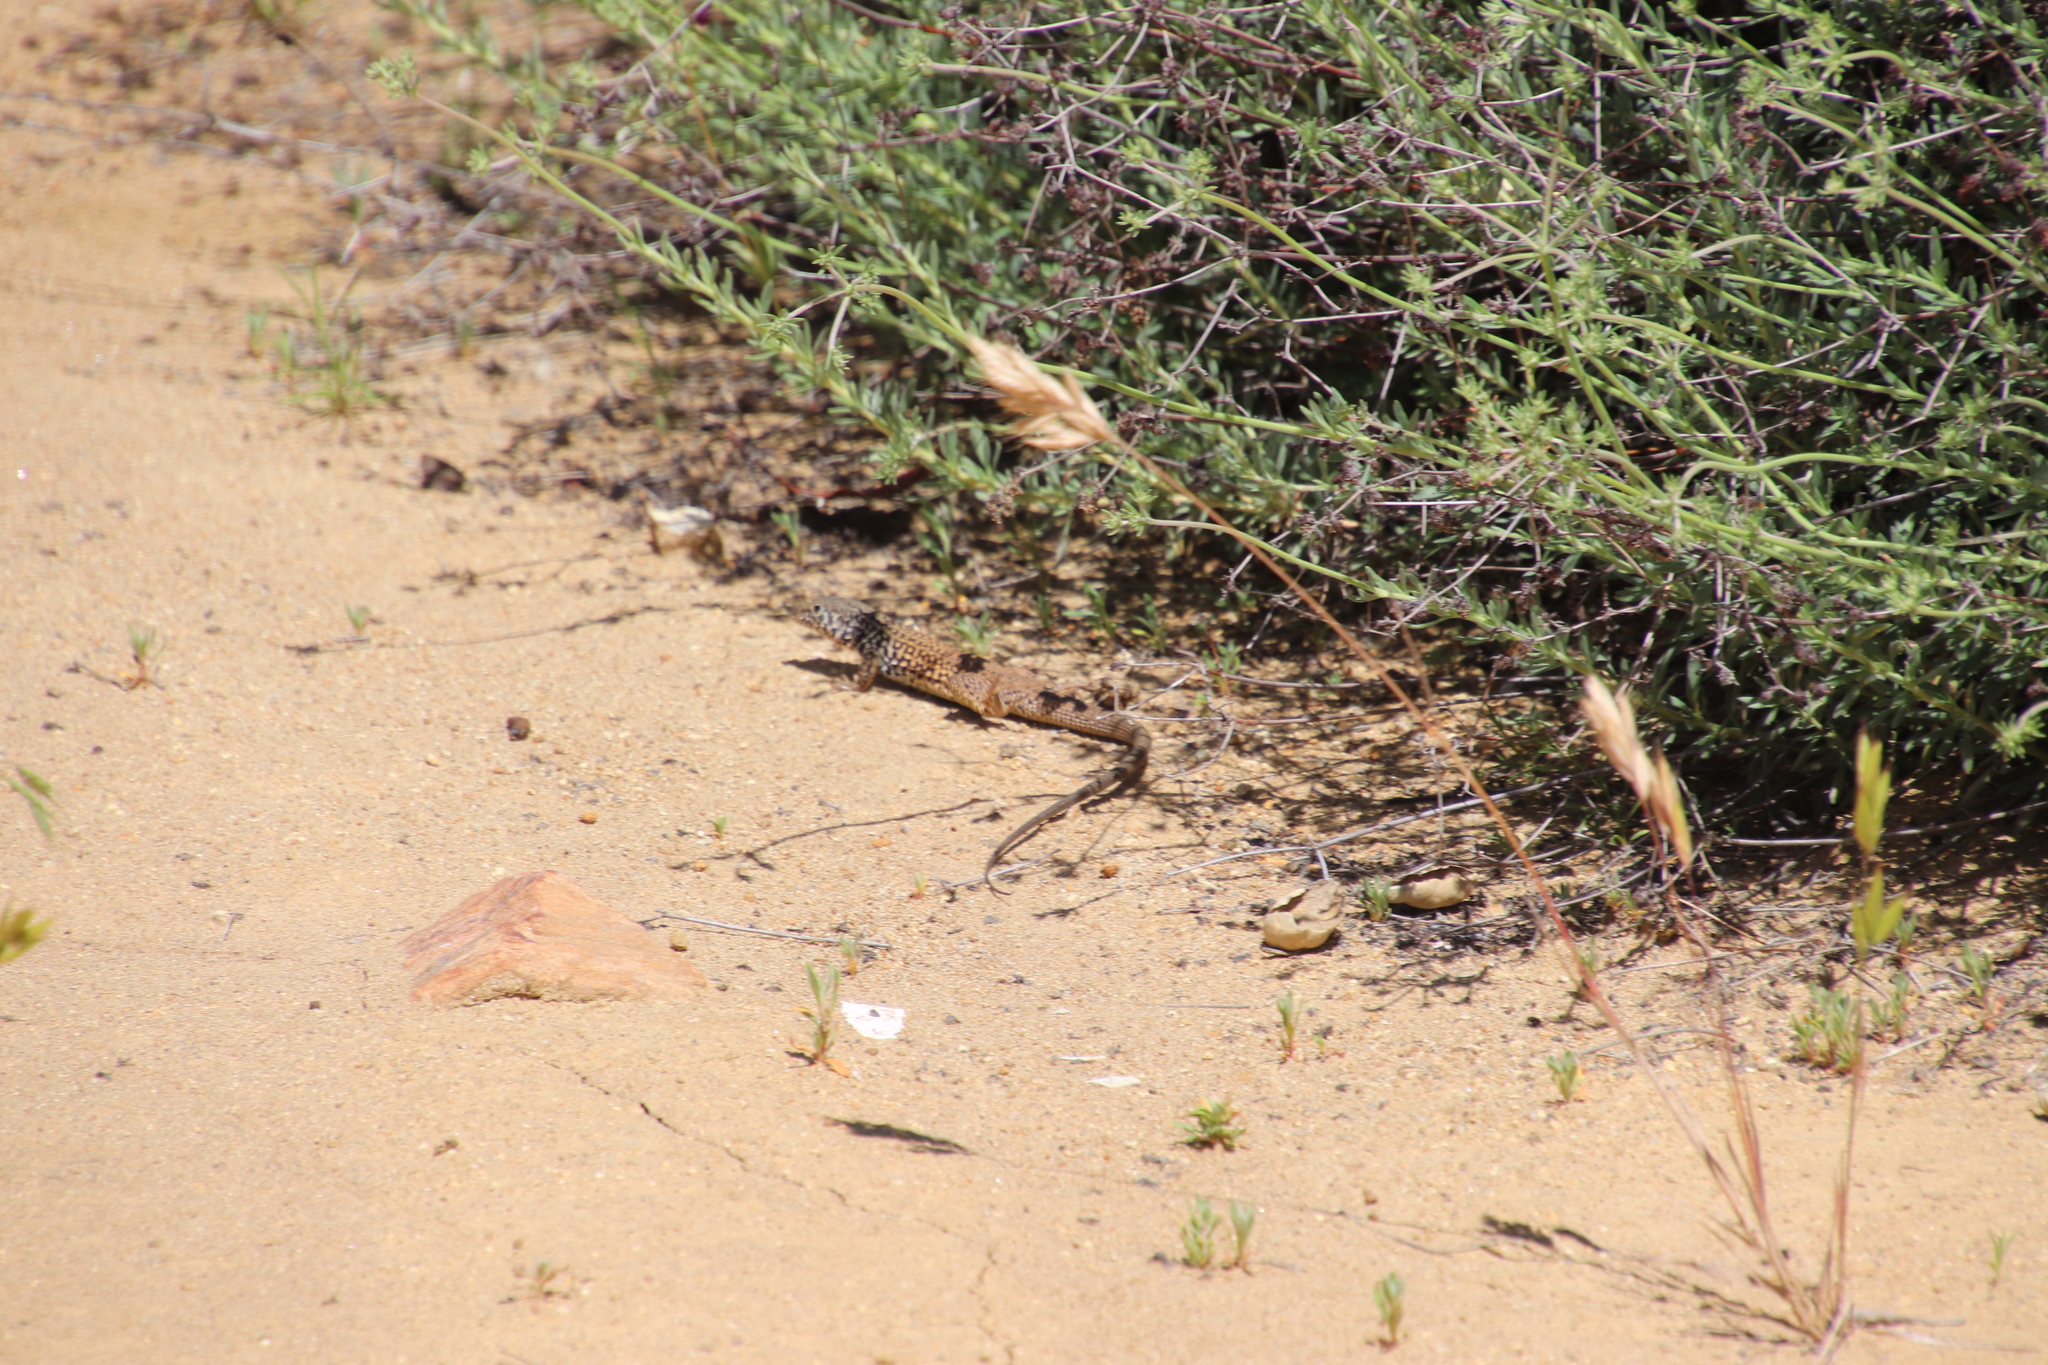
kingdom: Animalia
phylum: Chordata
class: Squamata
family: Teiidae
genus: Aspidoscelis
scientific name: Aspidoscelis tigris
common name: Tiger whiptail
